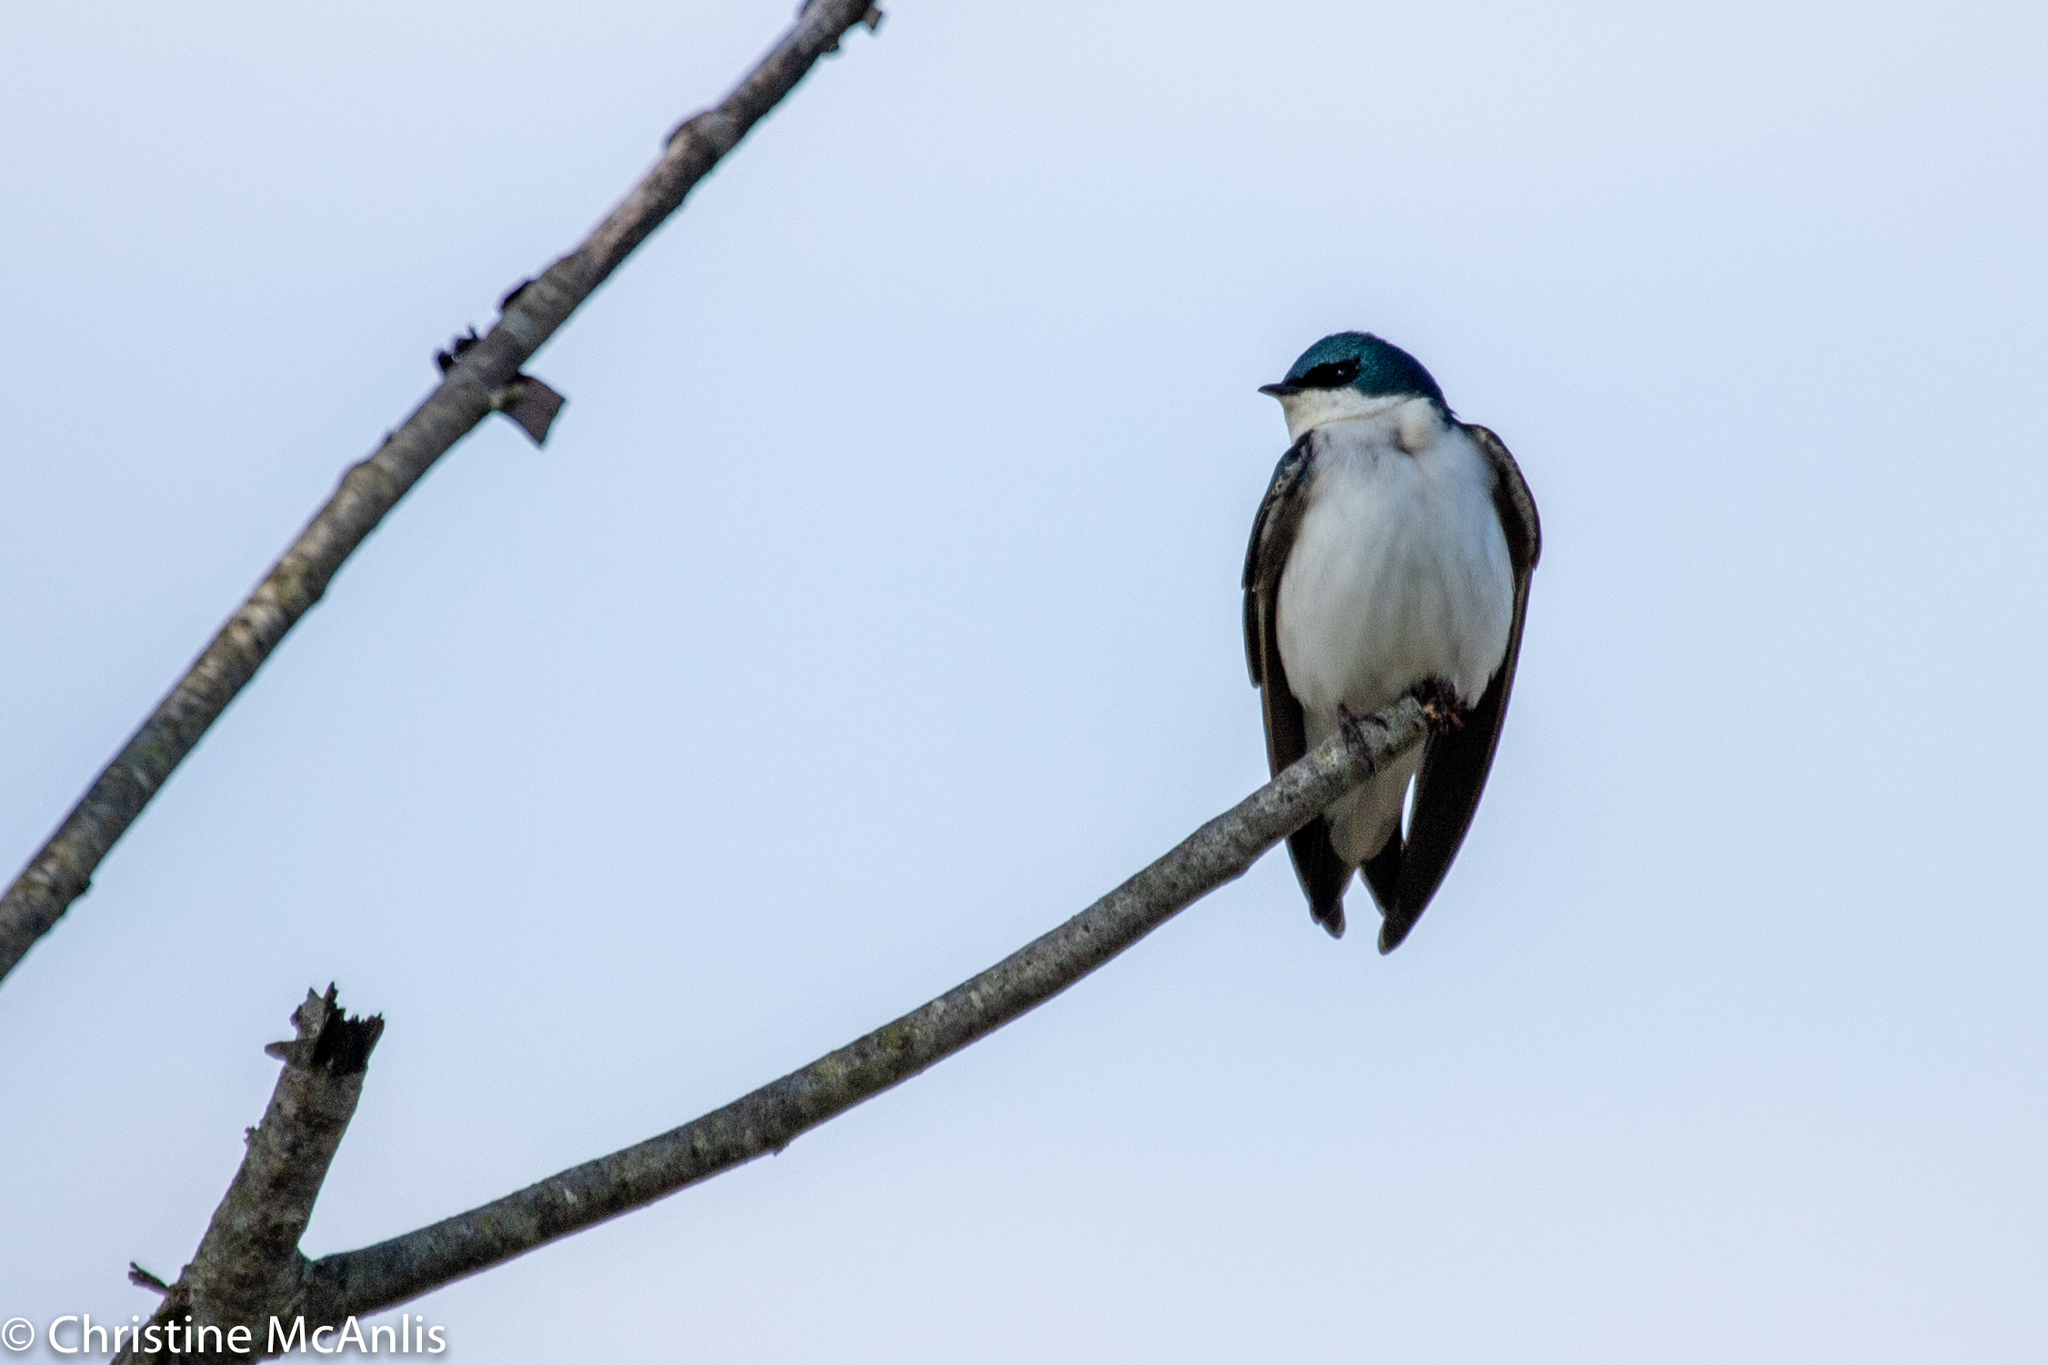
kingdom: Animalia
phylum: Chordata
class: Aves
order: Passeriformes
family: Hirundinidae
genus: Tachycineta
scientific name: Tachycineta bicolor
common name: Tree swallow
